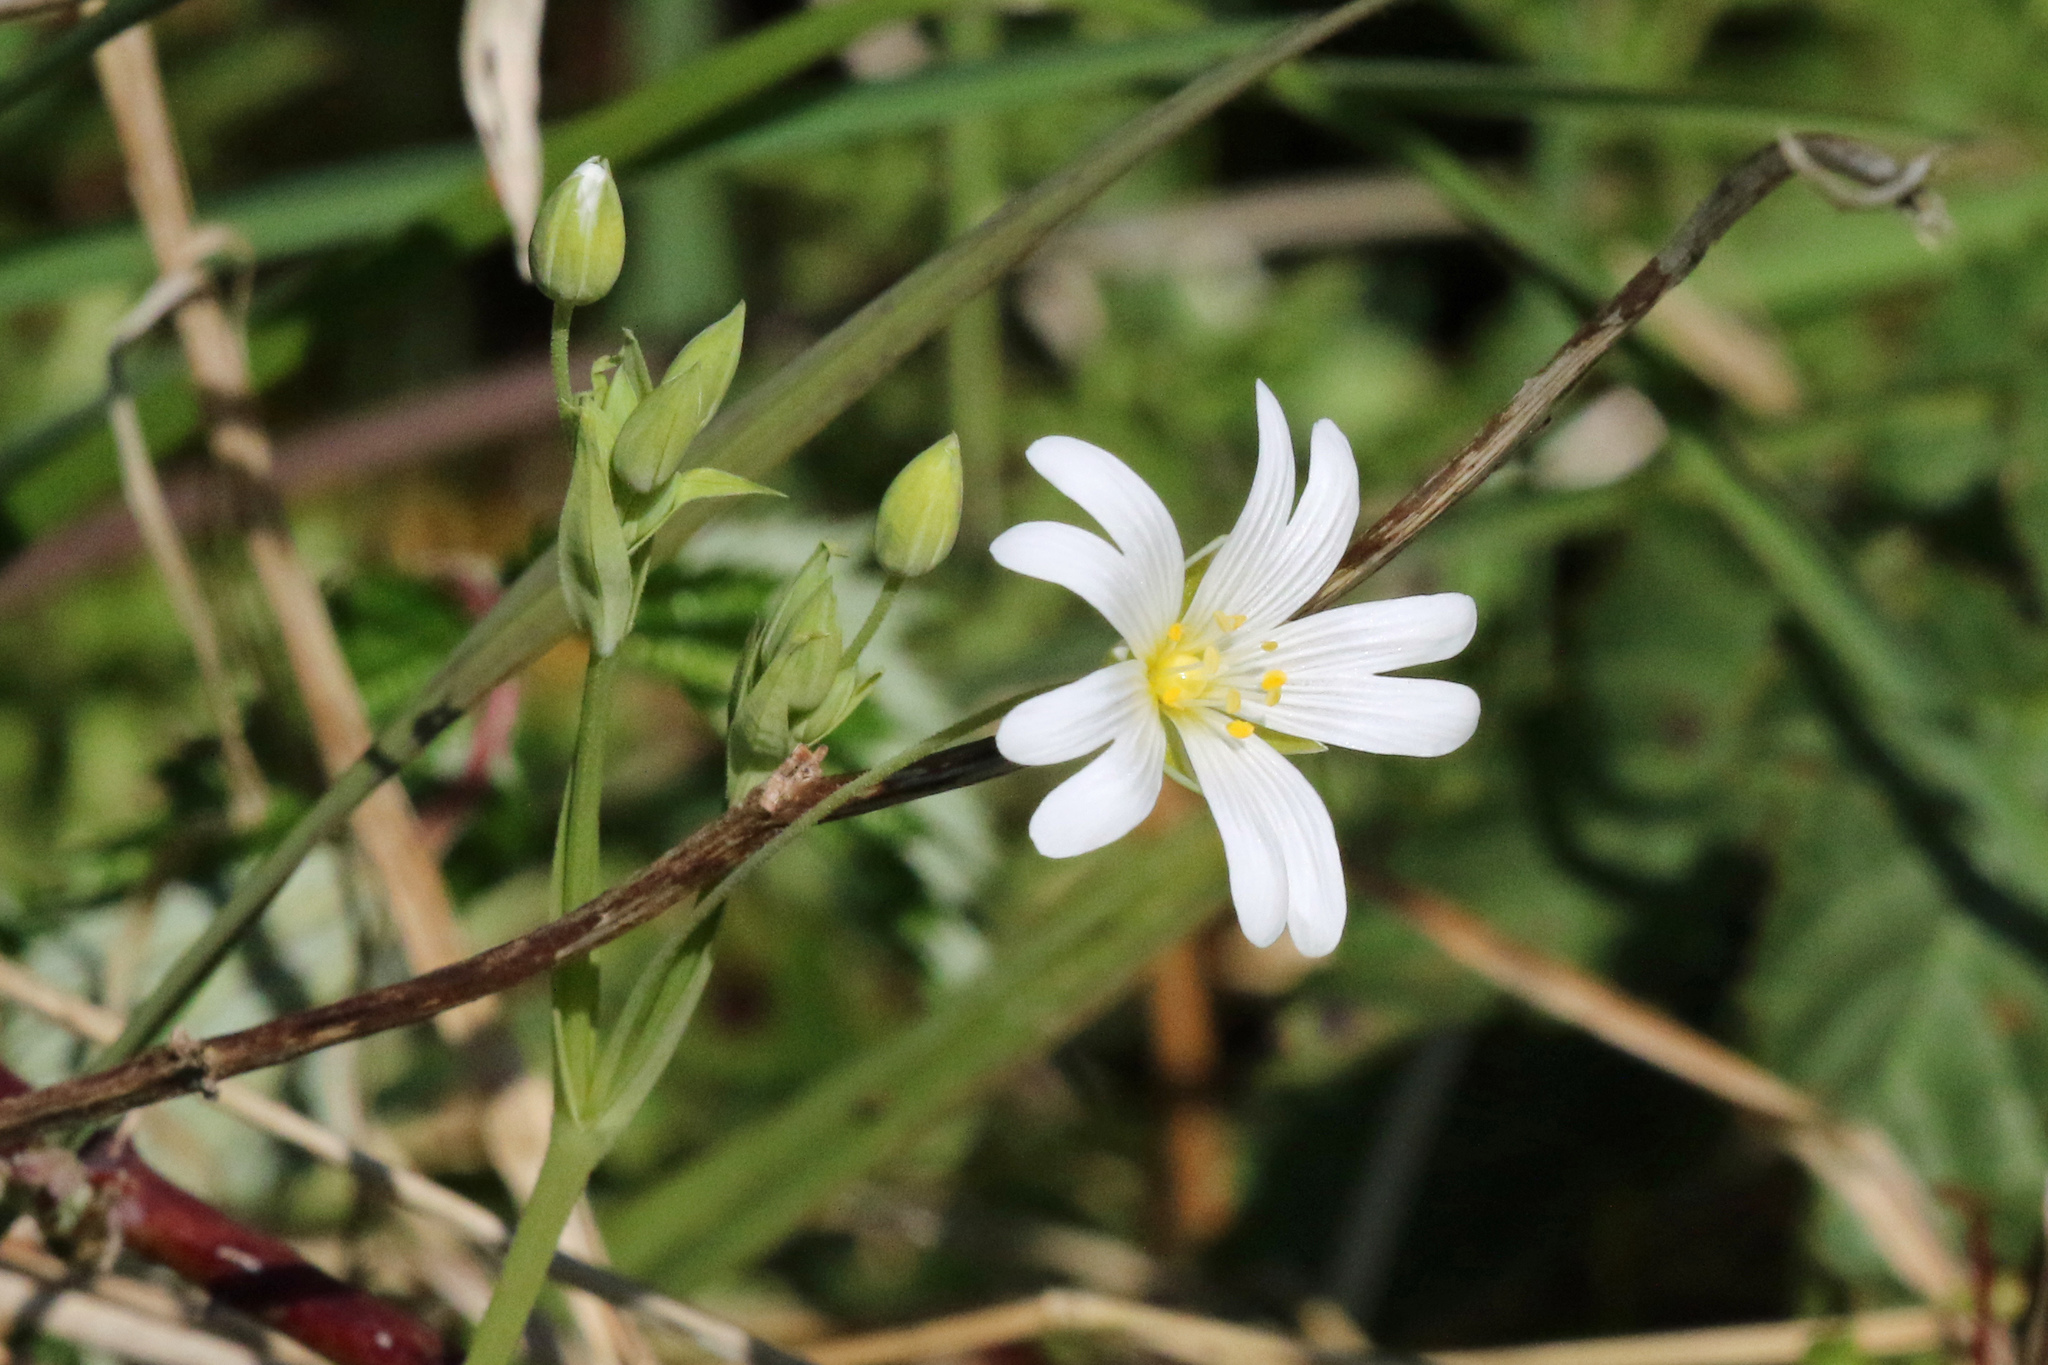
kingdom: Plantae
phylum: Tracheophyta
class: Magnoliopsida
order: Caryophyllales
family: Caryophyllaceae
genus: Rabelera
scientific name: Rabelera holostea
